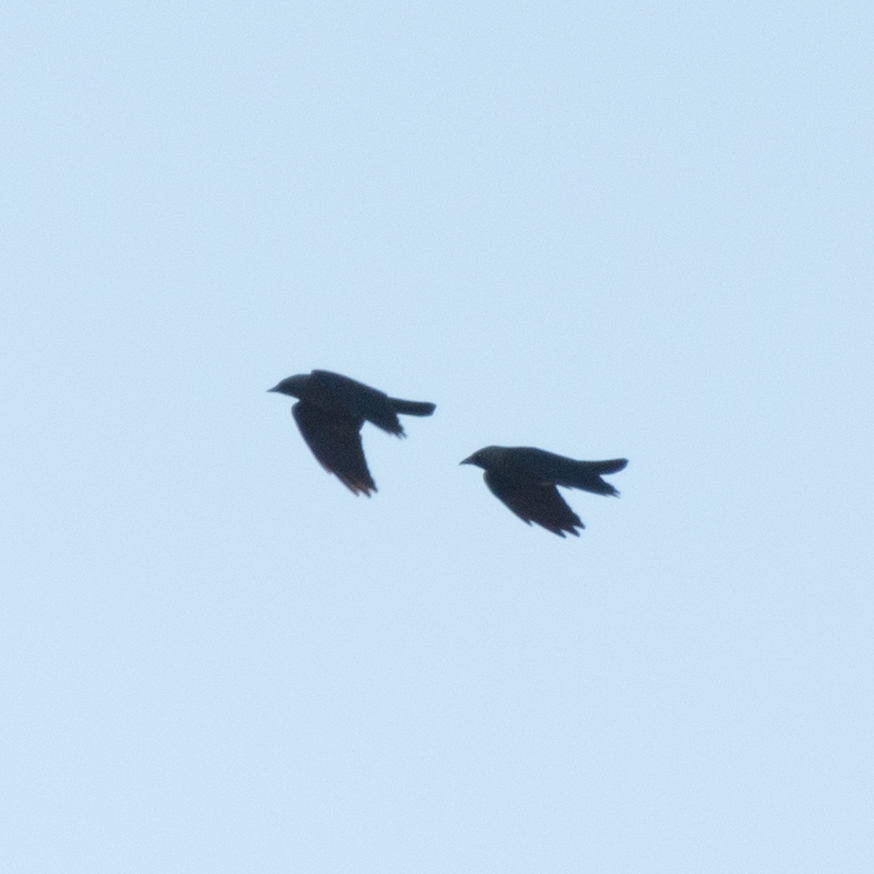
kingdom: Animalia
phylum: Chordata
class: Aves
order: Passeriformes
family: Corvidae
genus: Coloeus
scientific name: Coloeus monedula
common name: Western jackdaw
